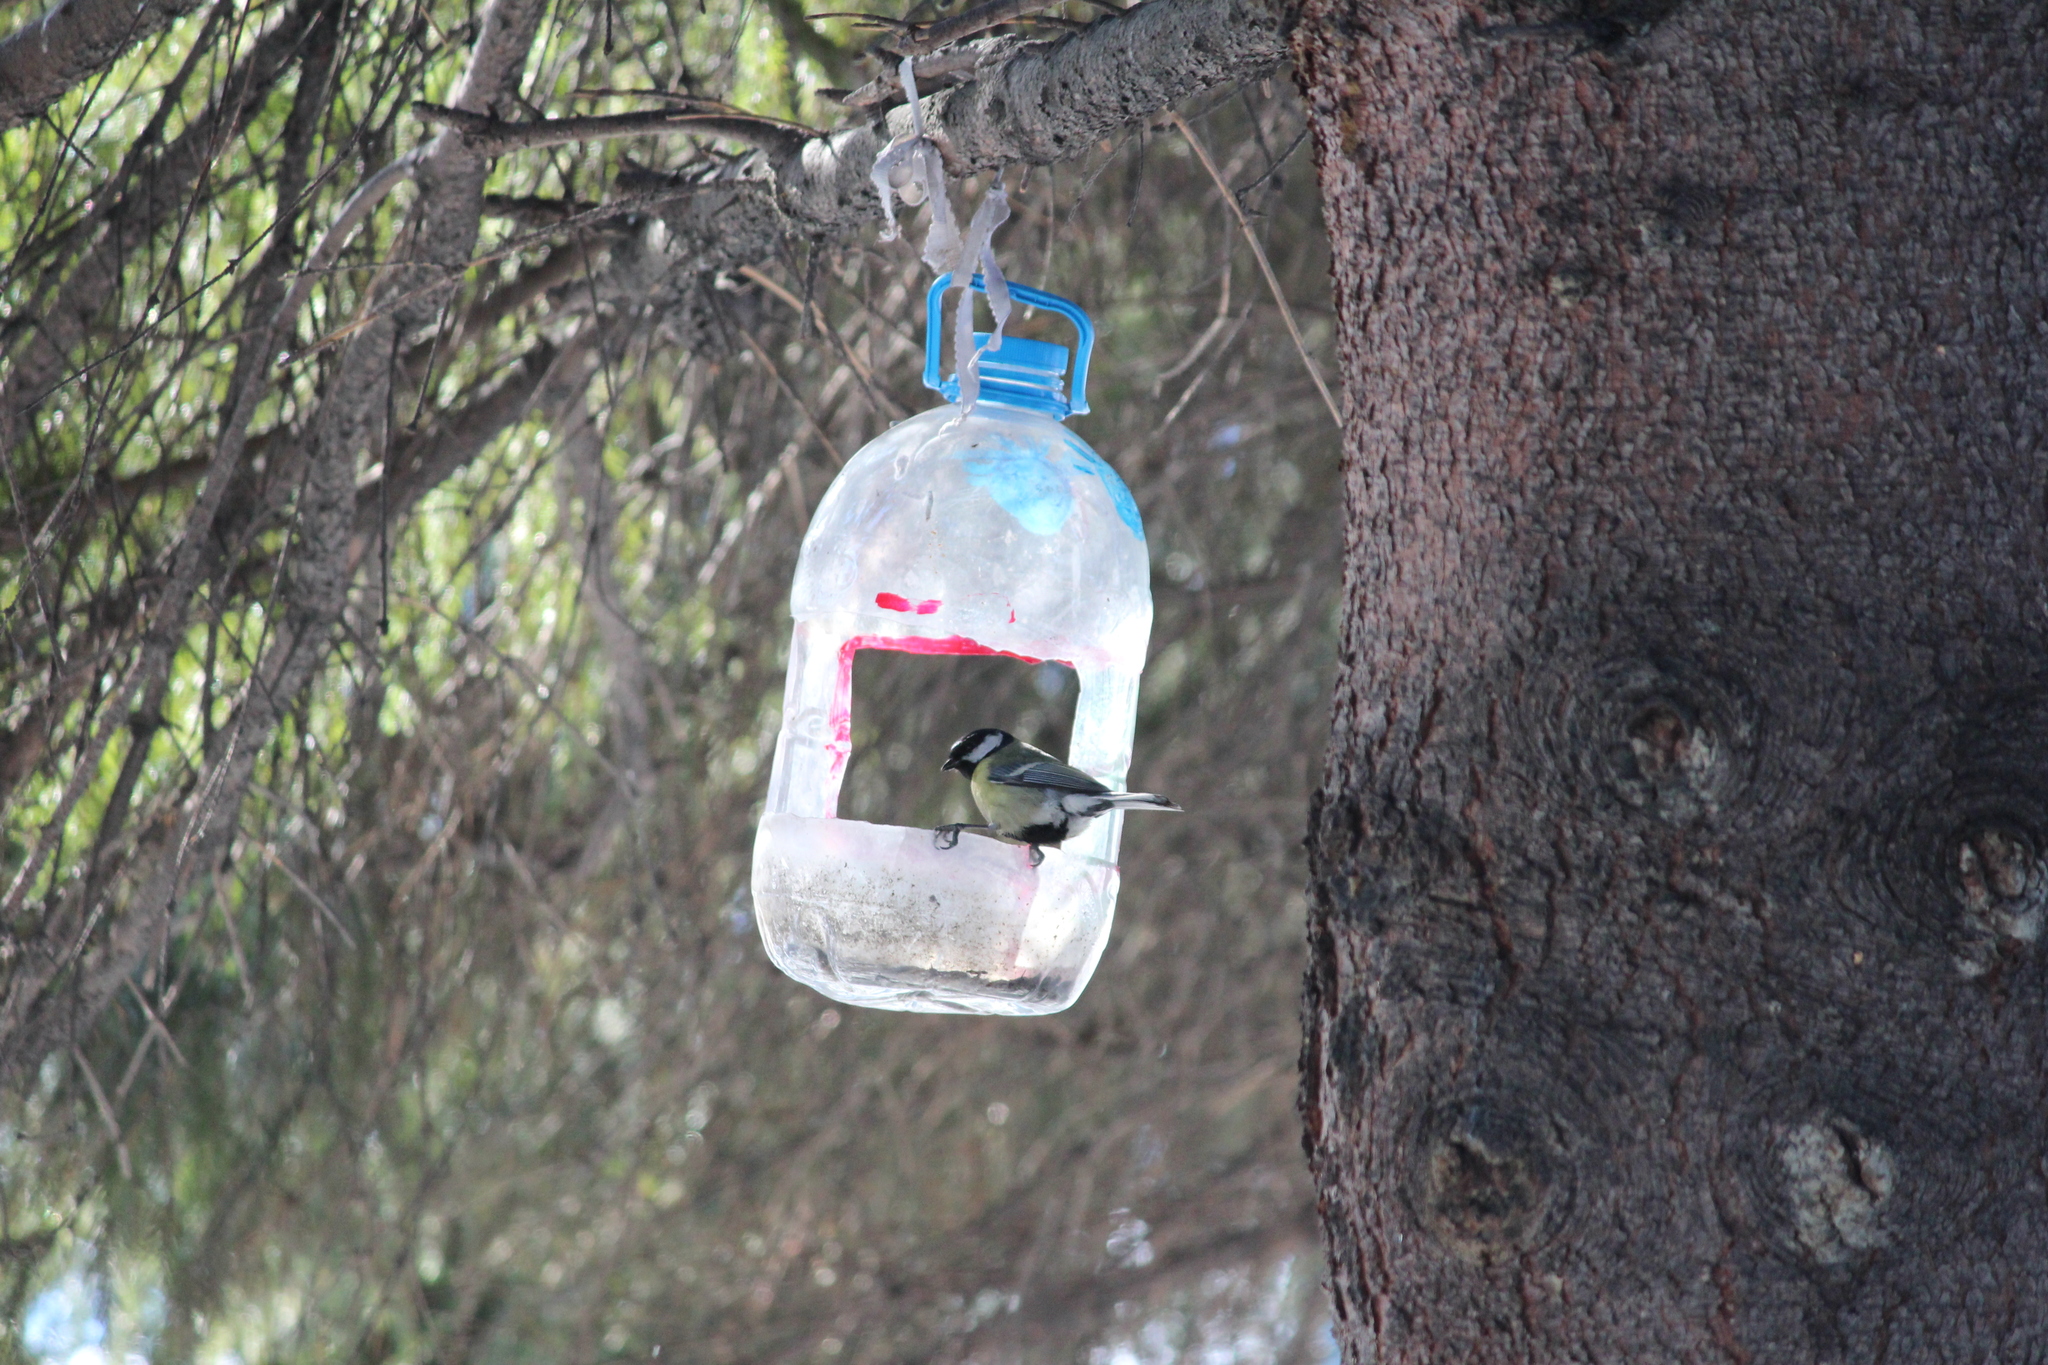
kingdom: Animalia
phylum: Chordata
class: Aves
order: Passeriformes
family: Paridae
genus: Parus
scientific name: Parus major
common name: Great tit
